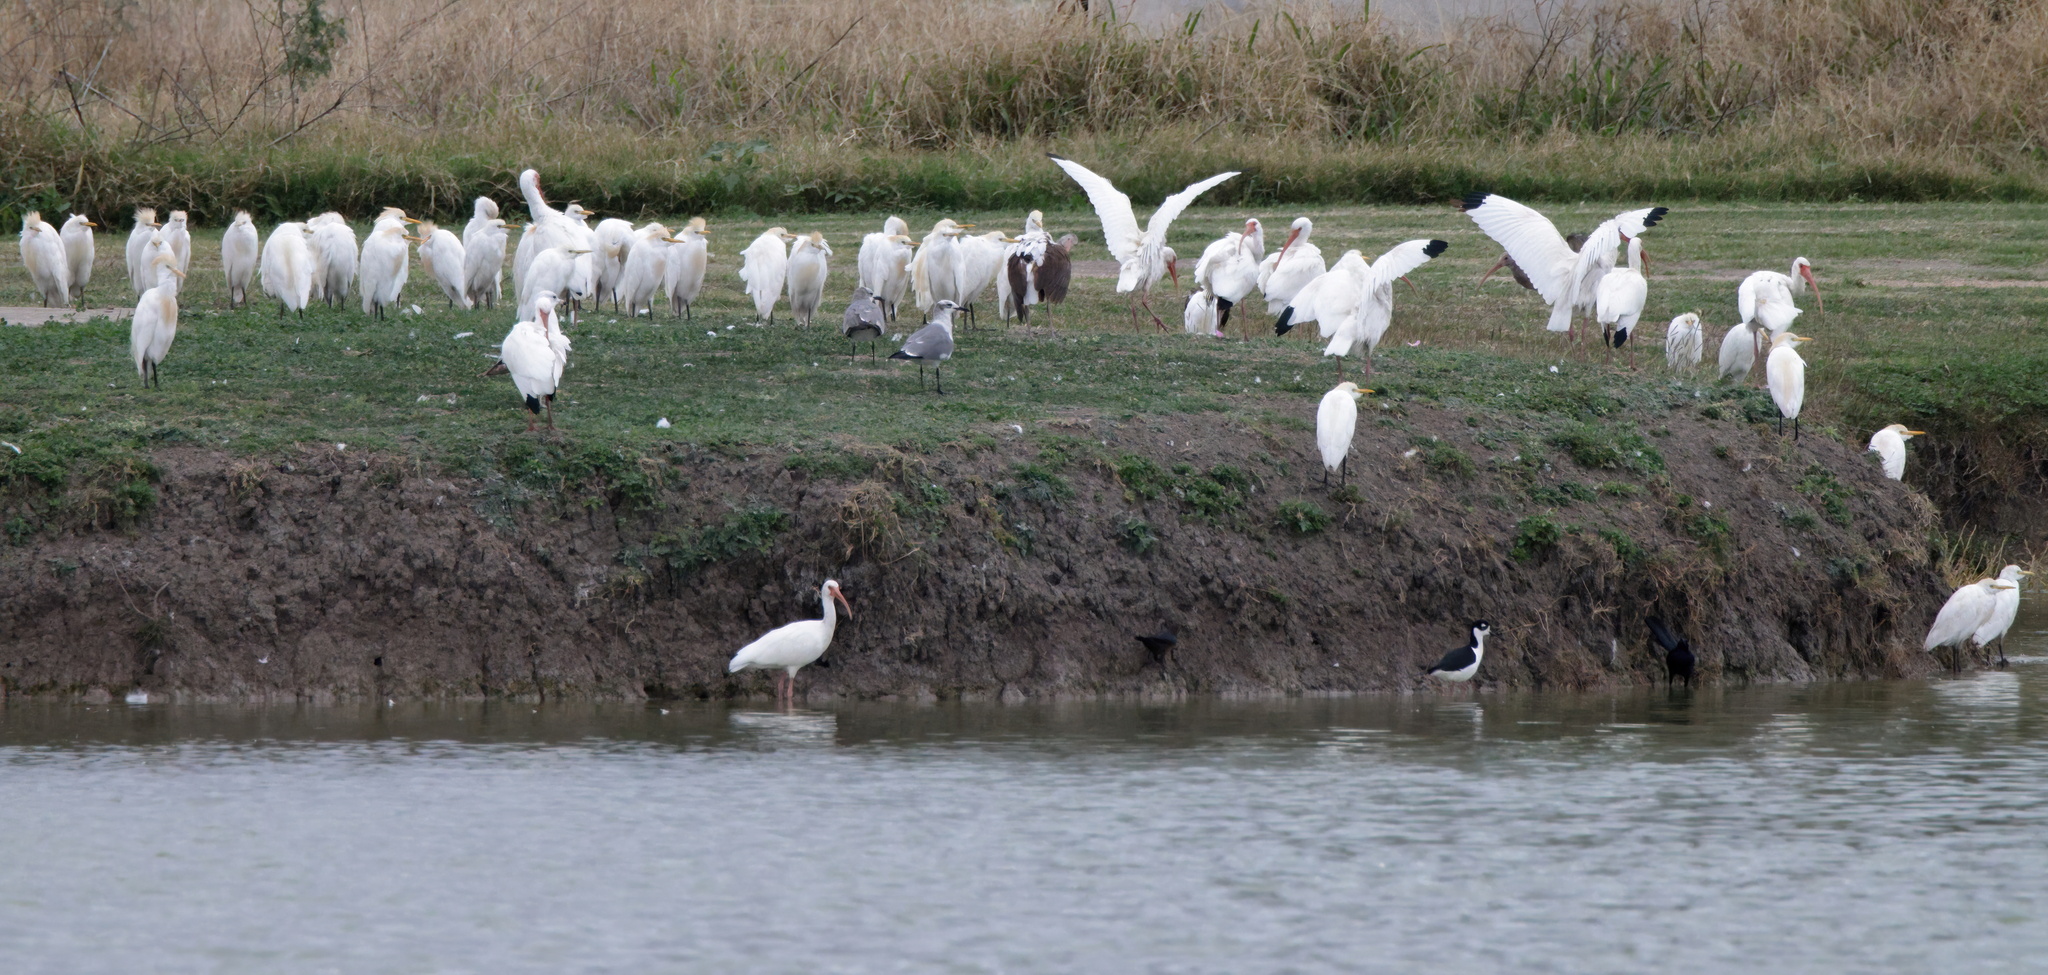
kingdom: Animalia
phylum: Chordata
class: Aves
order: Pelecaniformes
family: Ardeidae
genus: Bubulcus
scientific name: Bubulcus ibis
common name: Cattle egret
